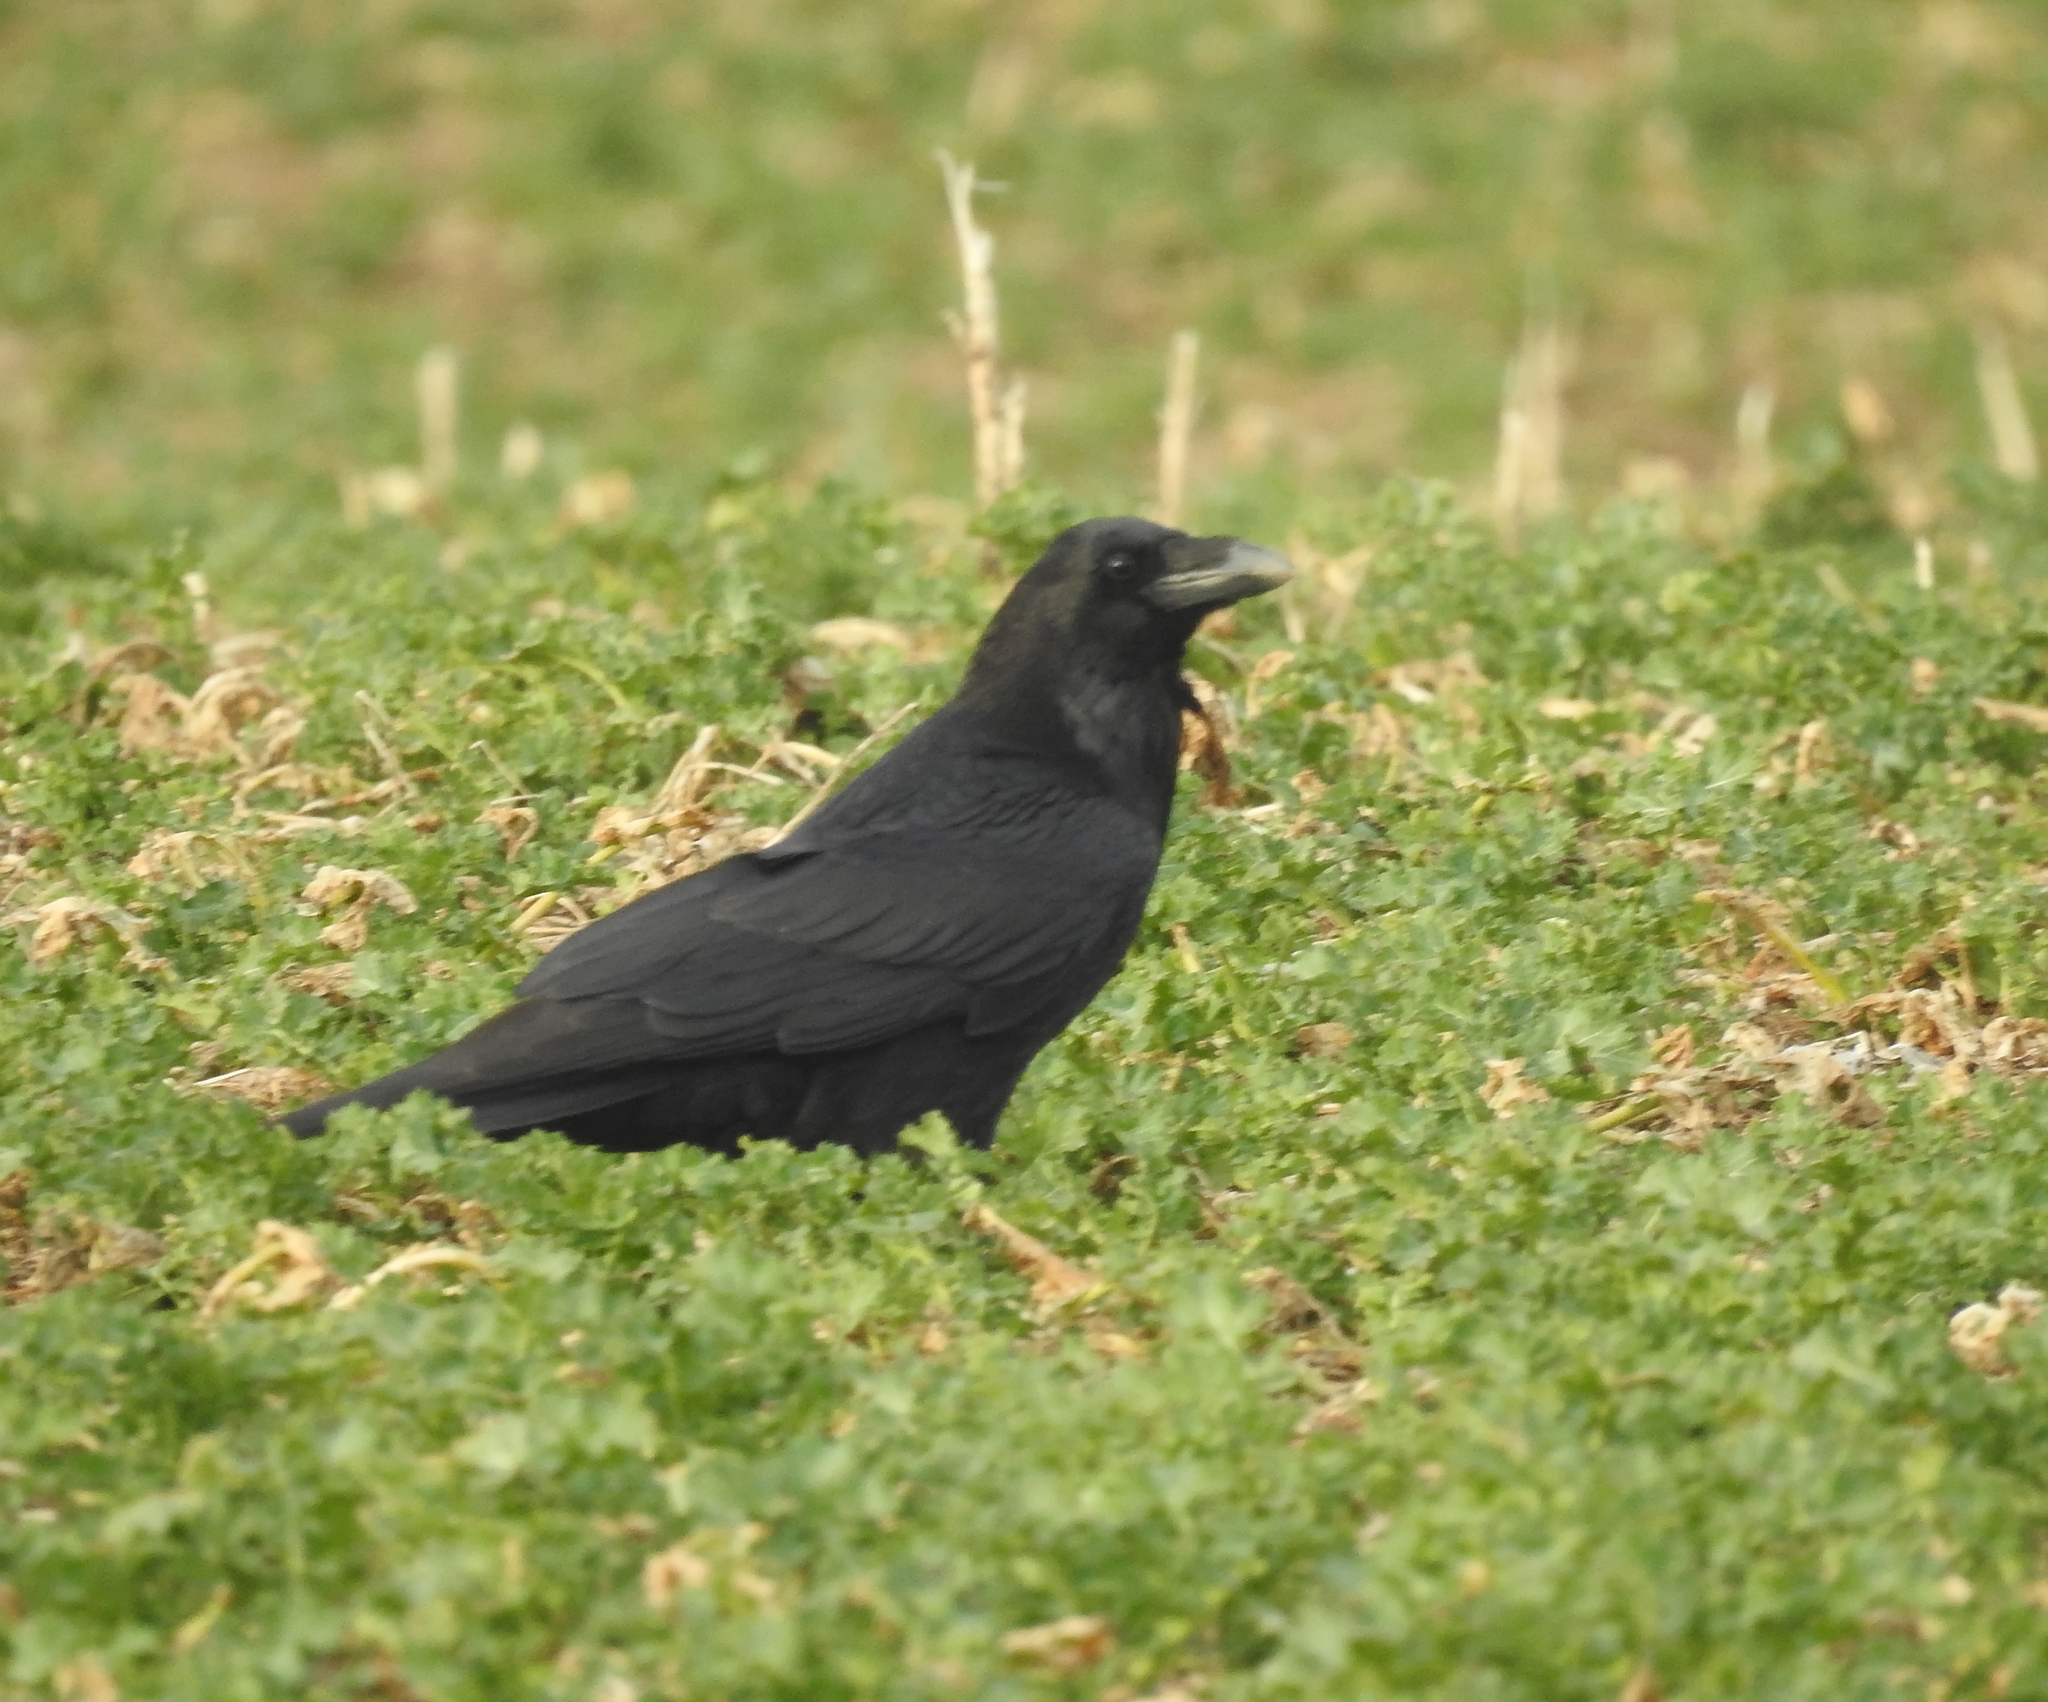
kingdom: Animalia
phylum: Chordata
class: Aves
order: Passeriformes
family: Corvidae
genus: Corvus
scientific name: Corvus corax
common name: Common raven
